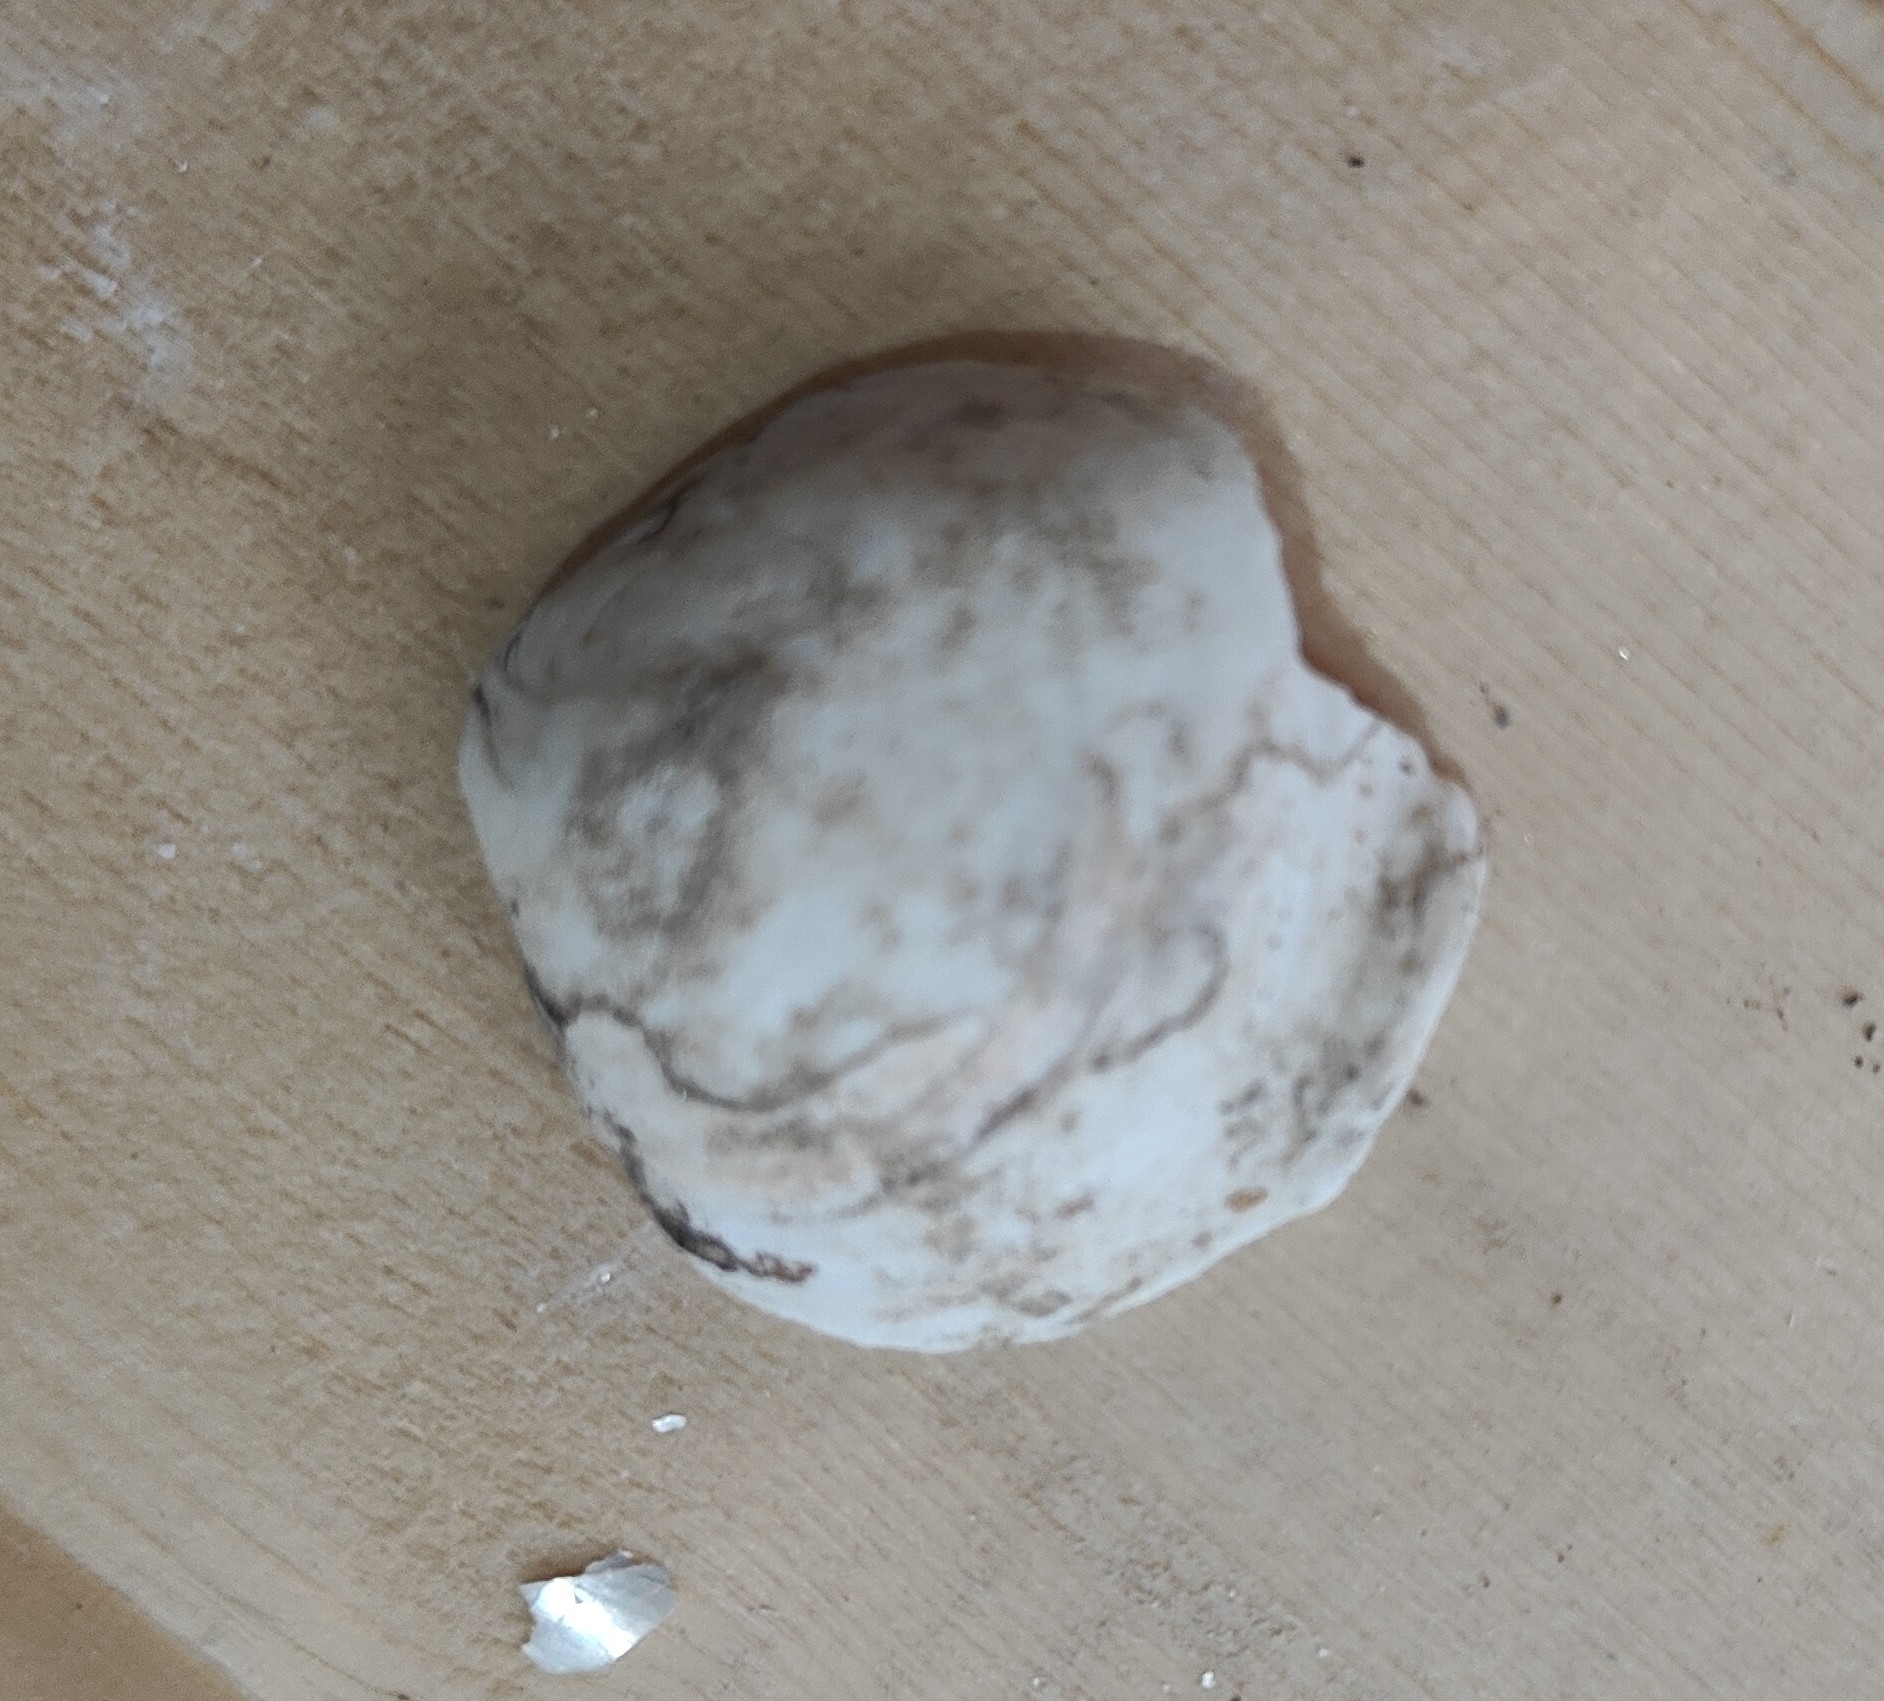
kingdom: Animalia
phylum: Mollusca
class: Bivalvia
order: Unionida
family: Unionidae
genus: Cyclonaias
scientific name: Cyclonaias pustulosa
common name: Pimpleback
